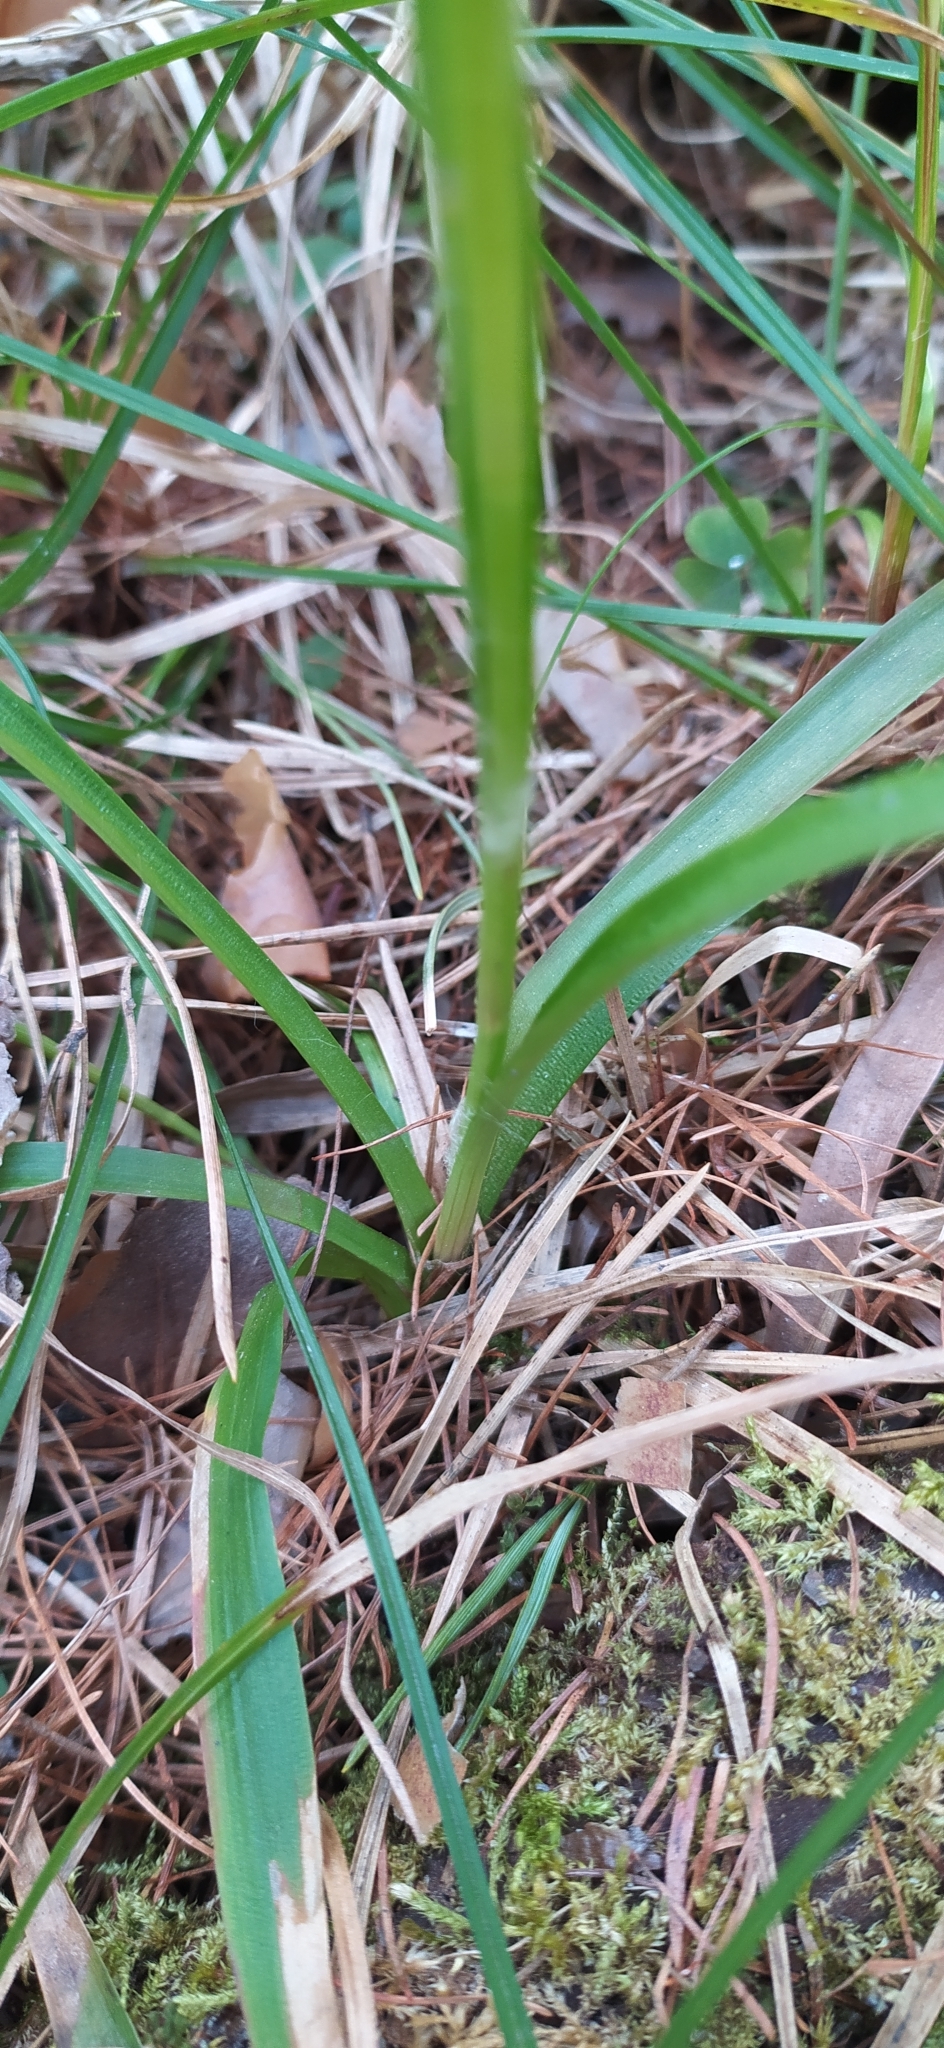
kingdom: Plantae
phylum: Tracheophyta
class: Liliopsida
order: Poales
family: Juncaceae
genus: Luzula
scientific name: Luzula pilosa
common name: Hairy wood-rush
